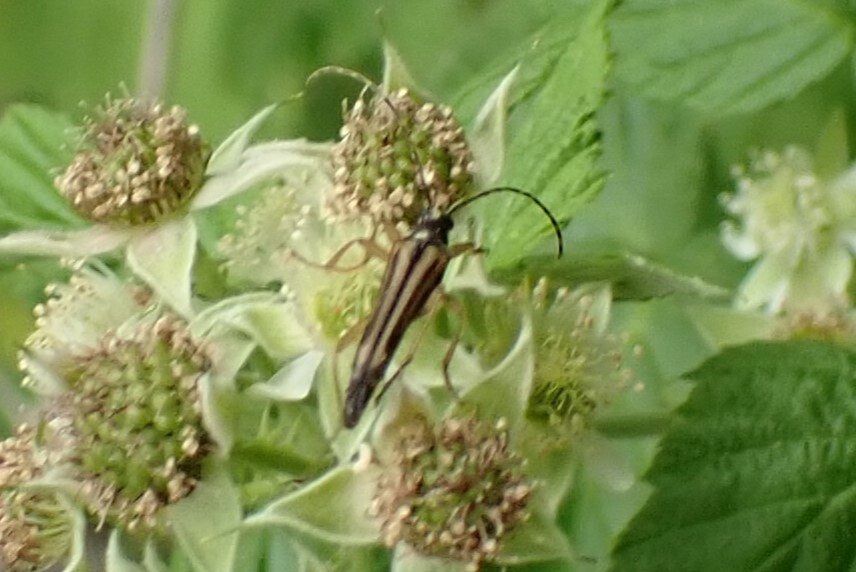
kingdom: Animalia
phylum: Arthropoda
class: Insecta
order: Coleoptera
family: Cerambycidae
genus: Analeptura
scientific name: Analeptura lineola
